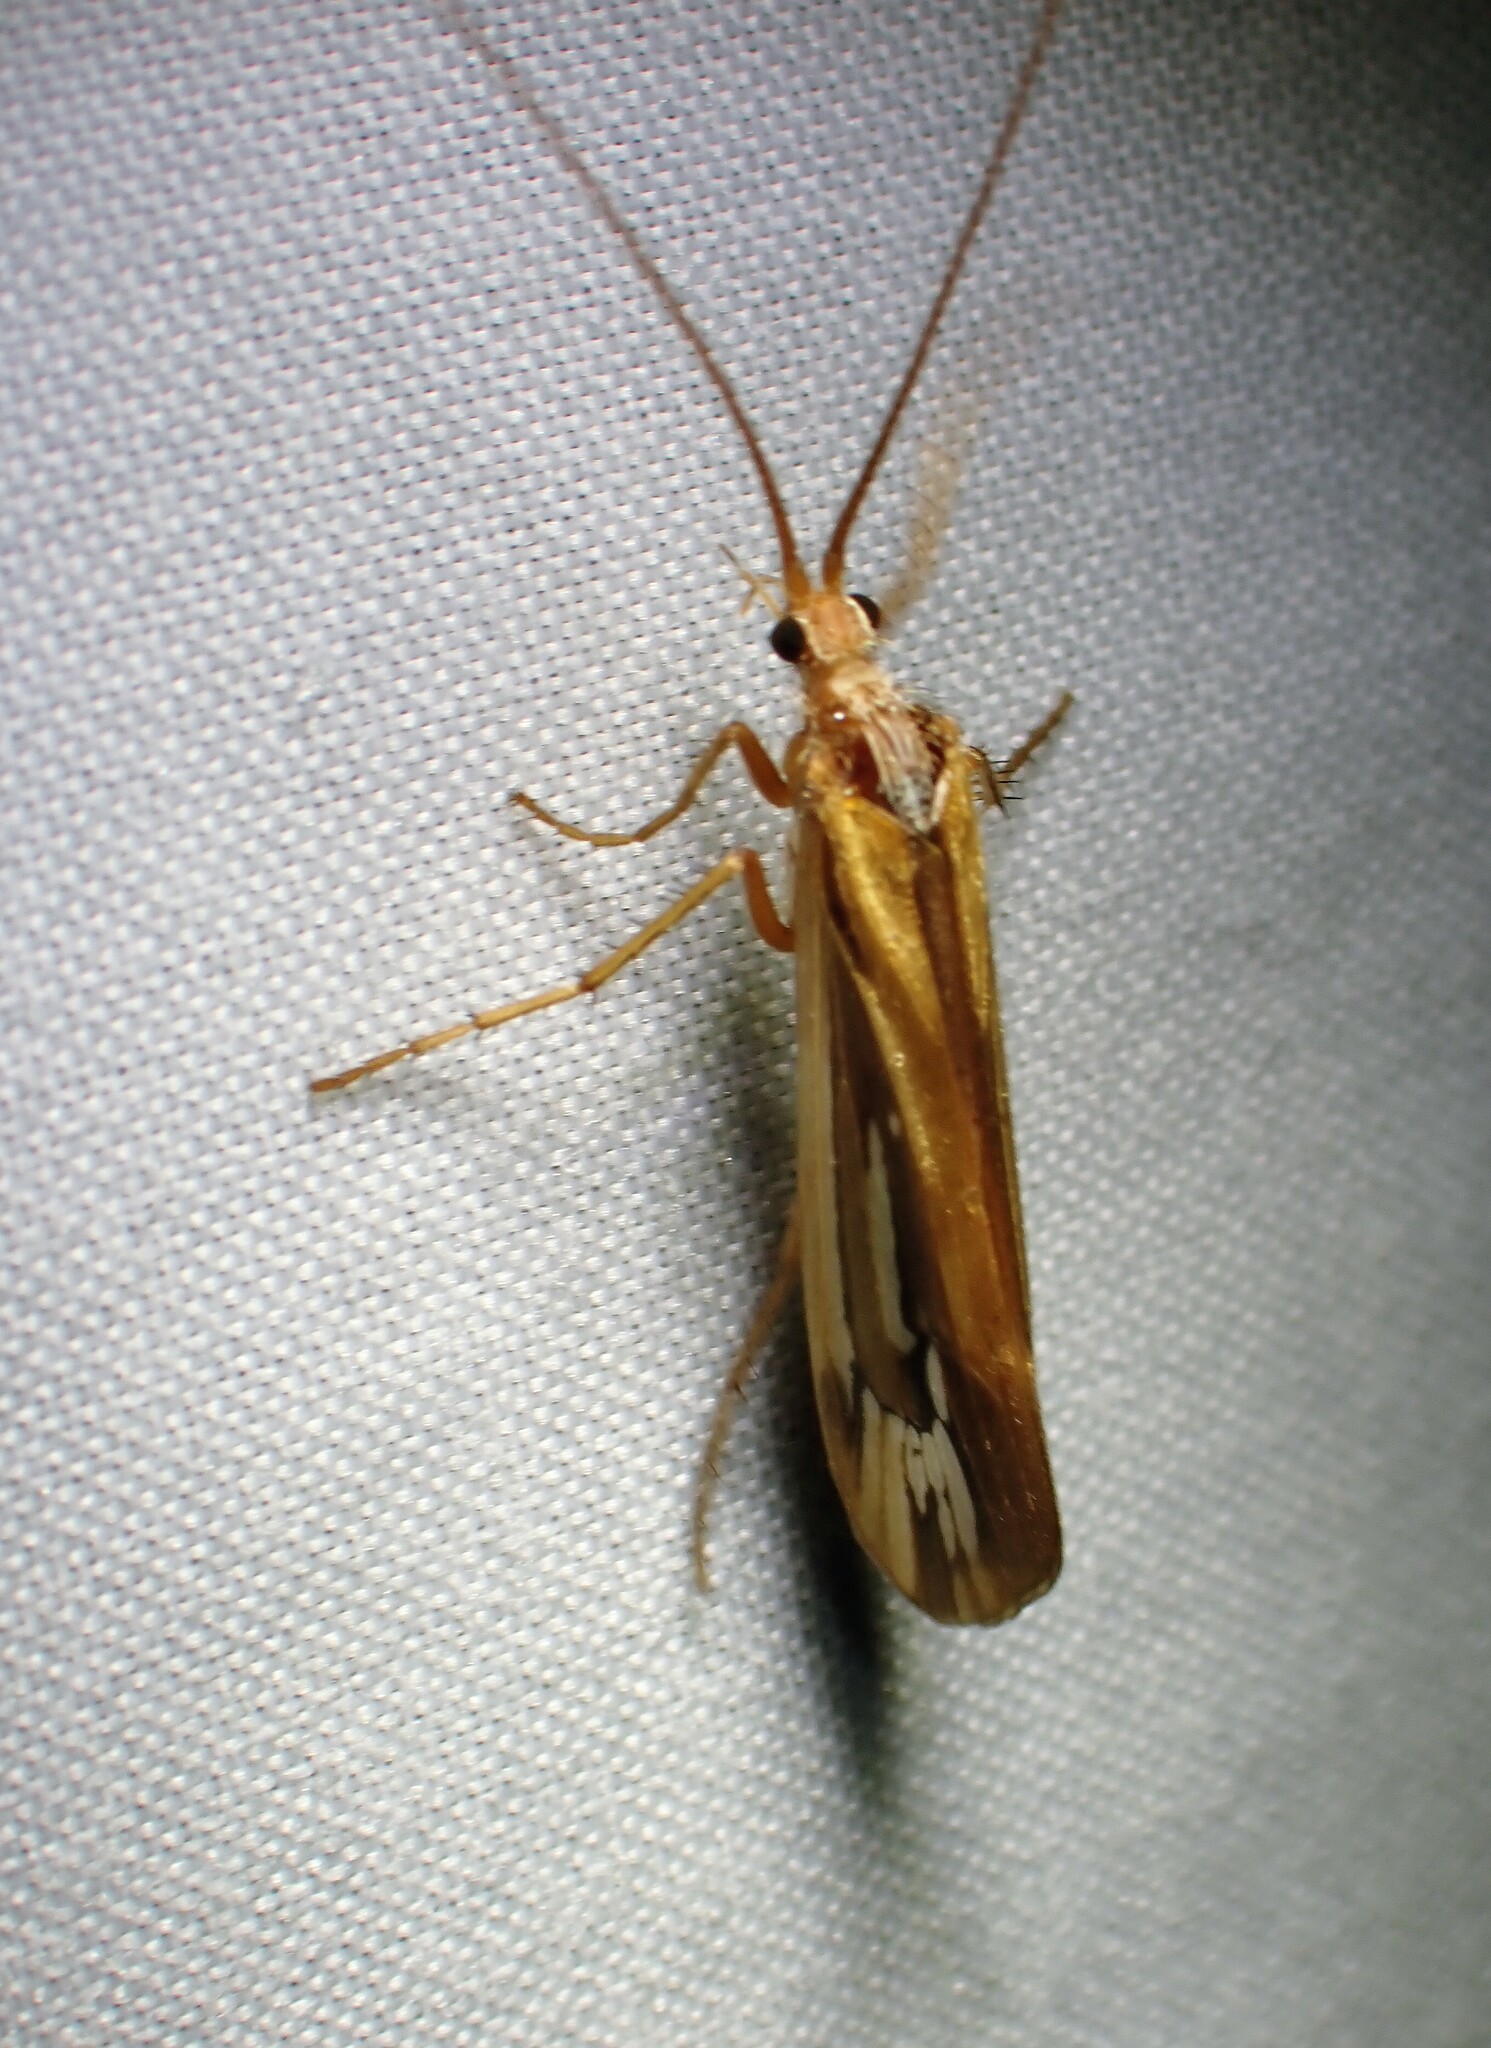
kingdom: Animalia
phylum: Arthropoda
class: Insecta
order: Trichoptera
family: Limnephilidae
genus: Limnephilus
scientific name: Limnephilus ornatus
